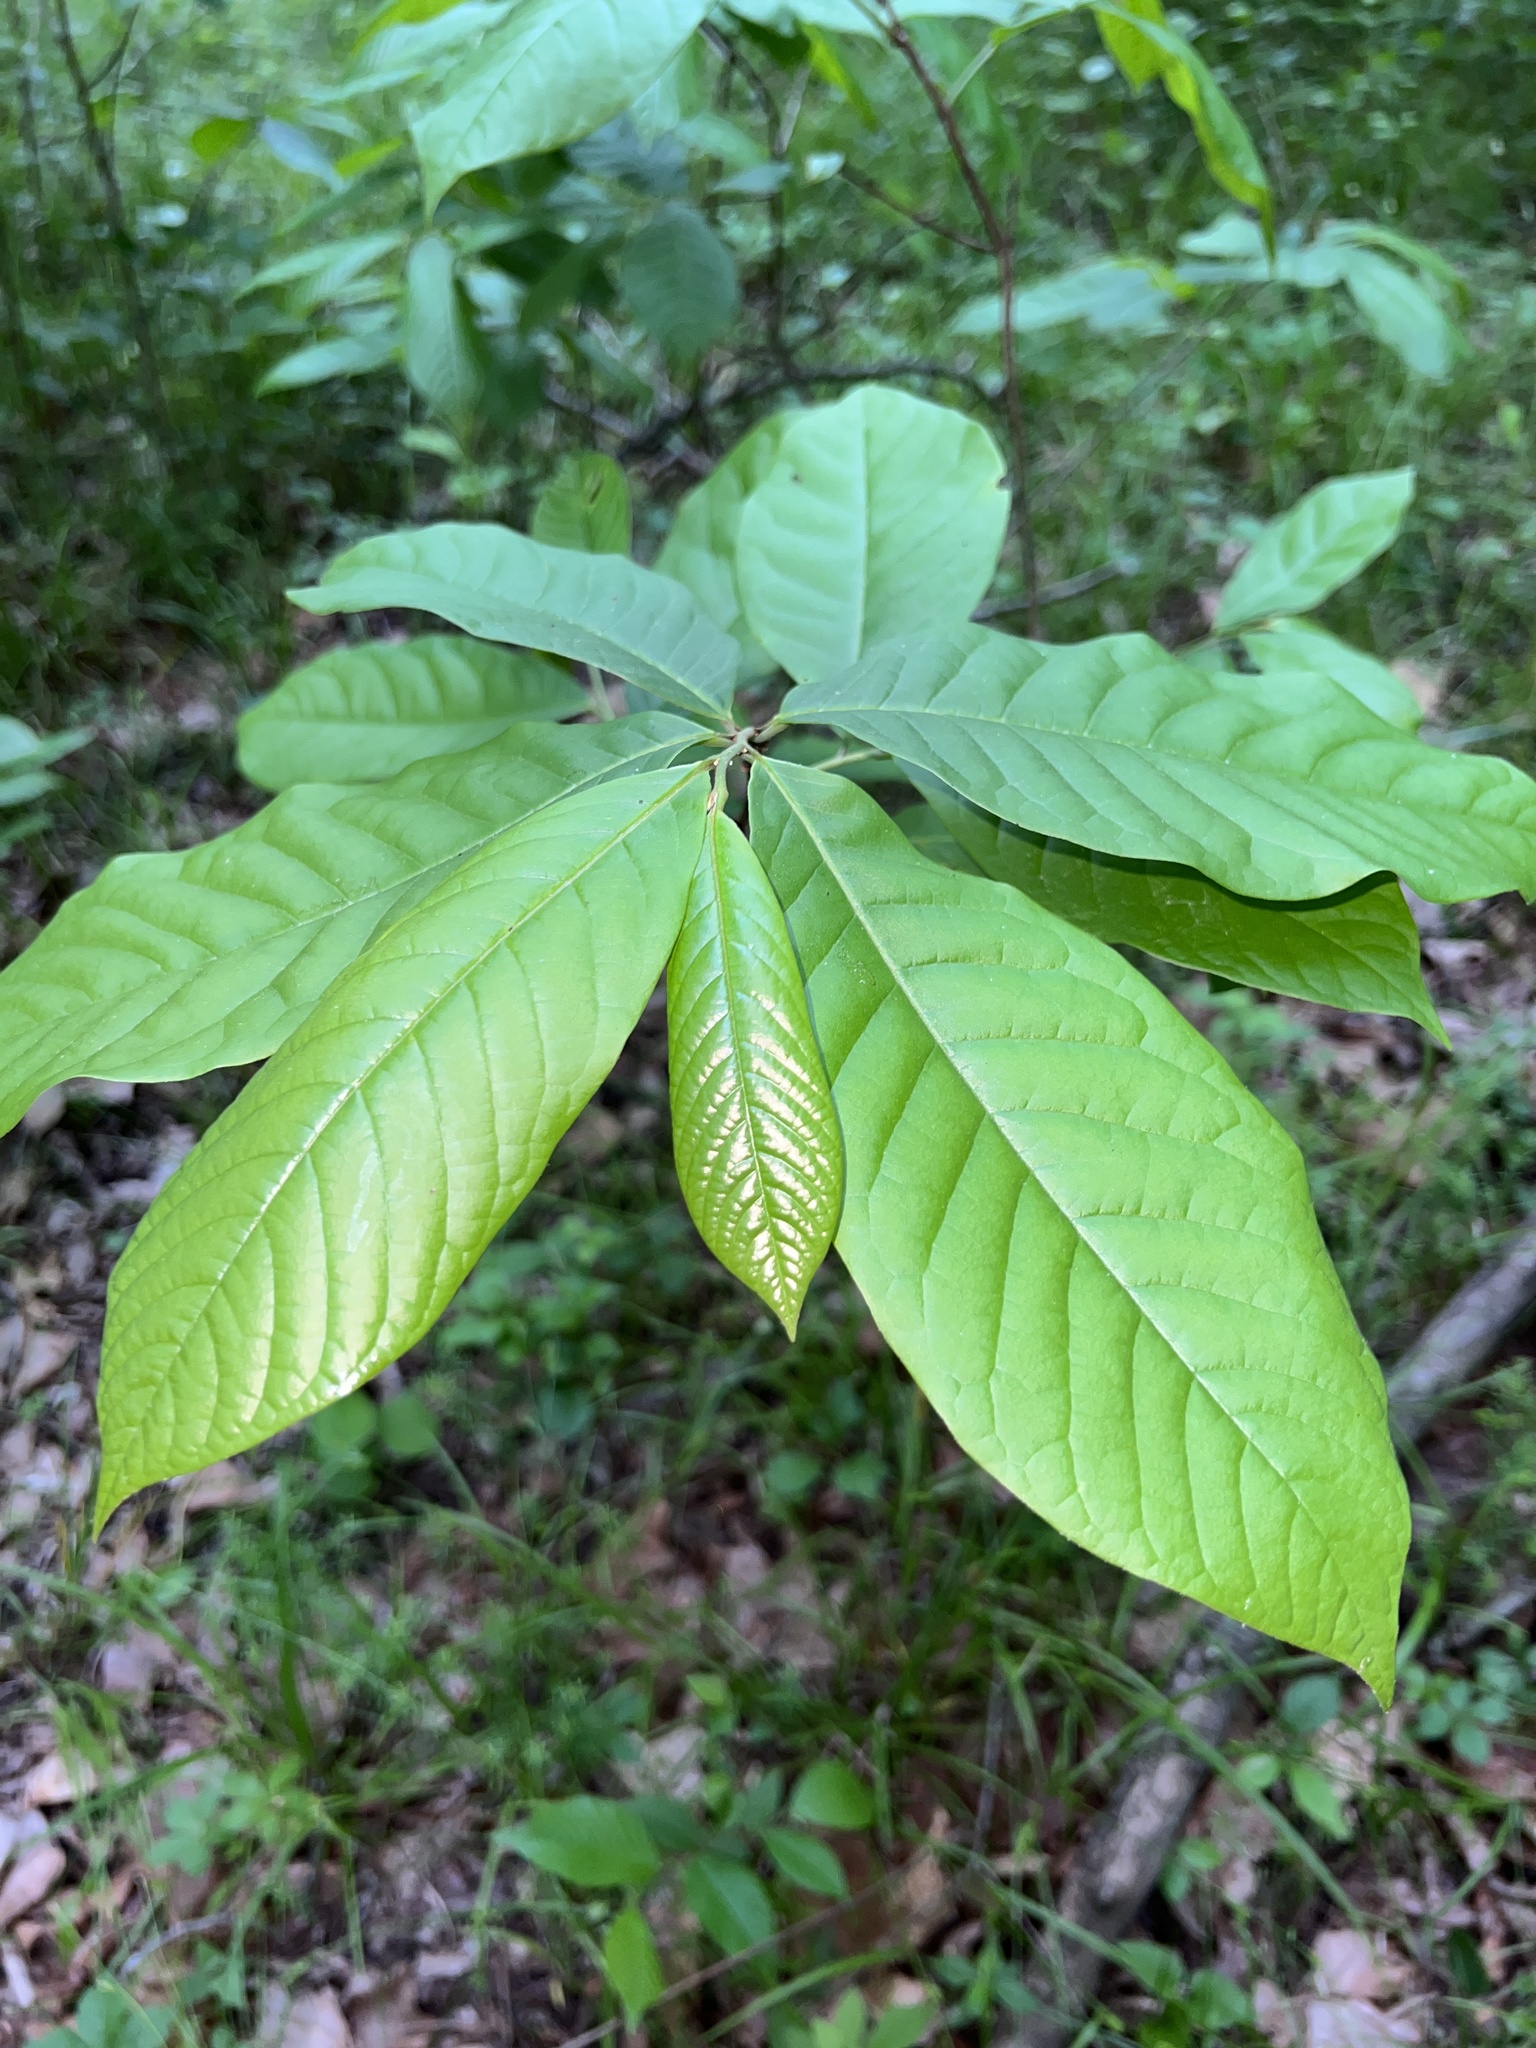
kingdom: Plantae
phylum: Tracheophyta
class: Magnoliopsida
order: Magnoliales
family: Annonaceae
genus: Asimina
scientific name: Asimina triloba
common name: Dog-banana
